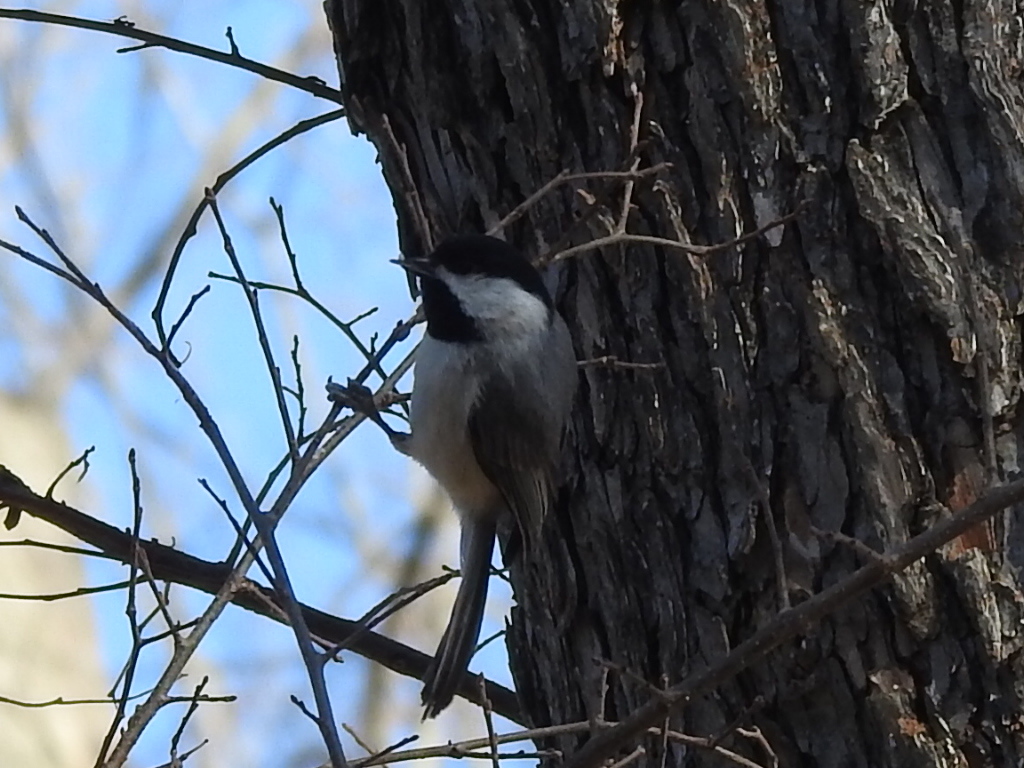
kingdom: Animalia
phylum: Chordata
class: Aves
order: Passeriformes
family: Paridae
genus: Poecile
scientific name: Poecile carolinensis
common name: Carolina chickadee
